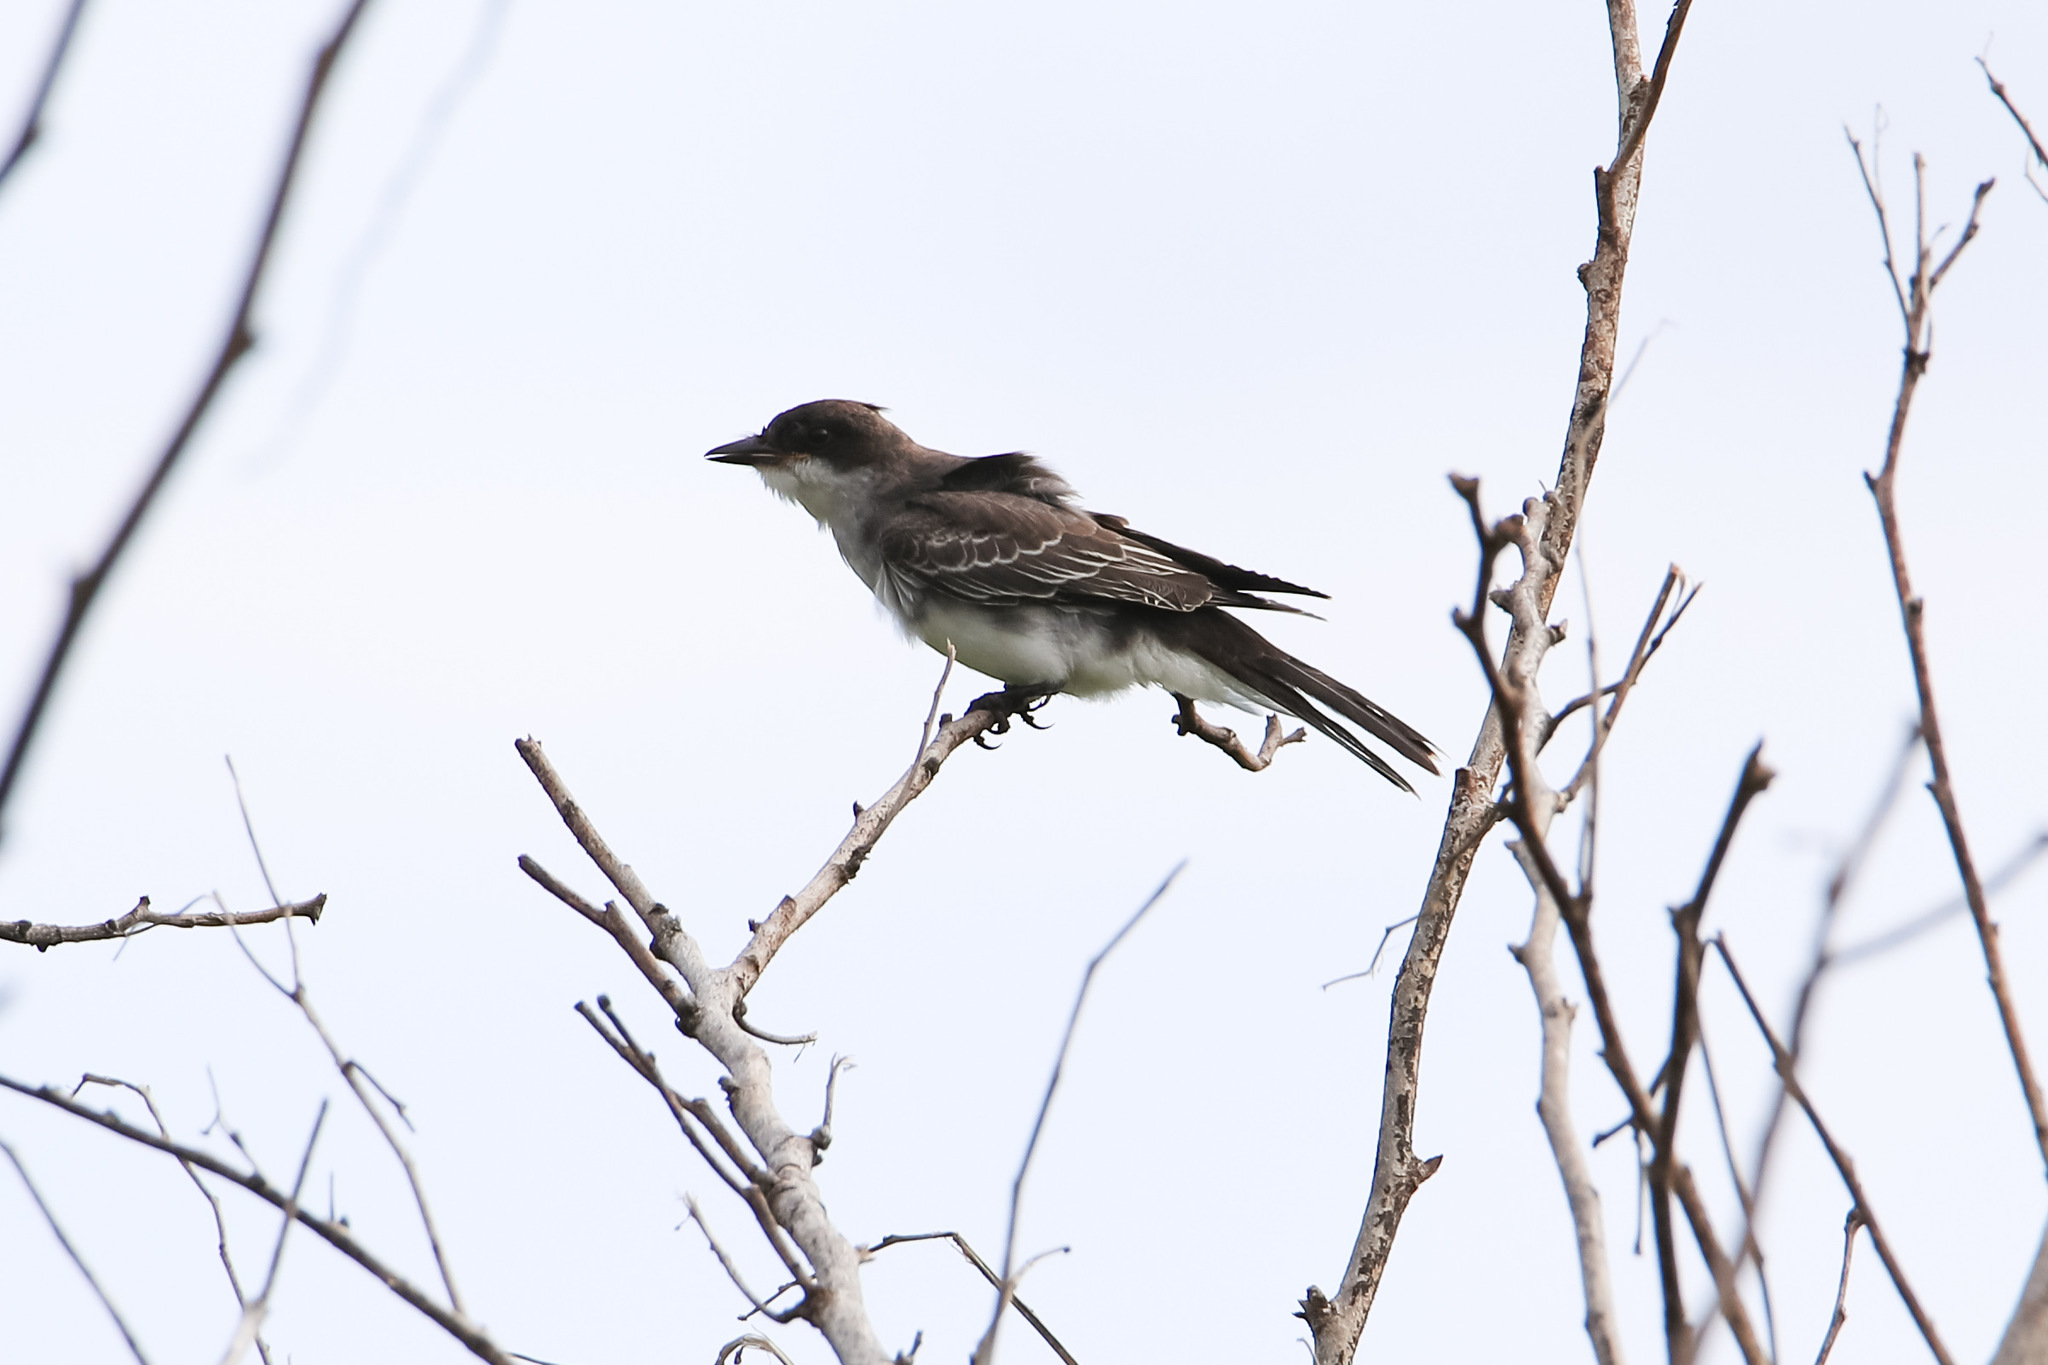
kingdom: Animalia
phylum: Chordata
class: Aves
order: Passeriformes
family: Tyrannidae
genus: Tyrannus
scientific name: Tyrannus tyrannus
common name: Eastern kingbird
